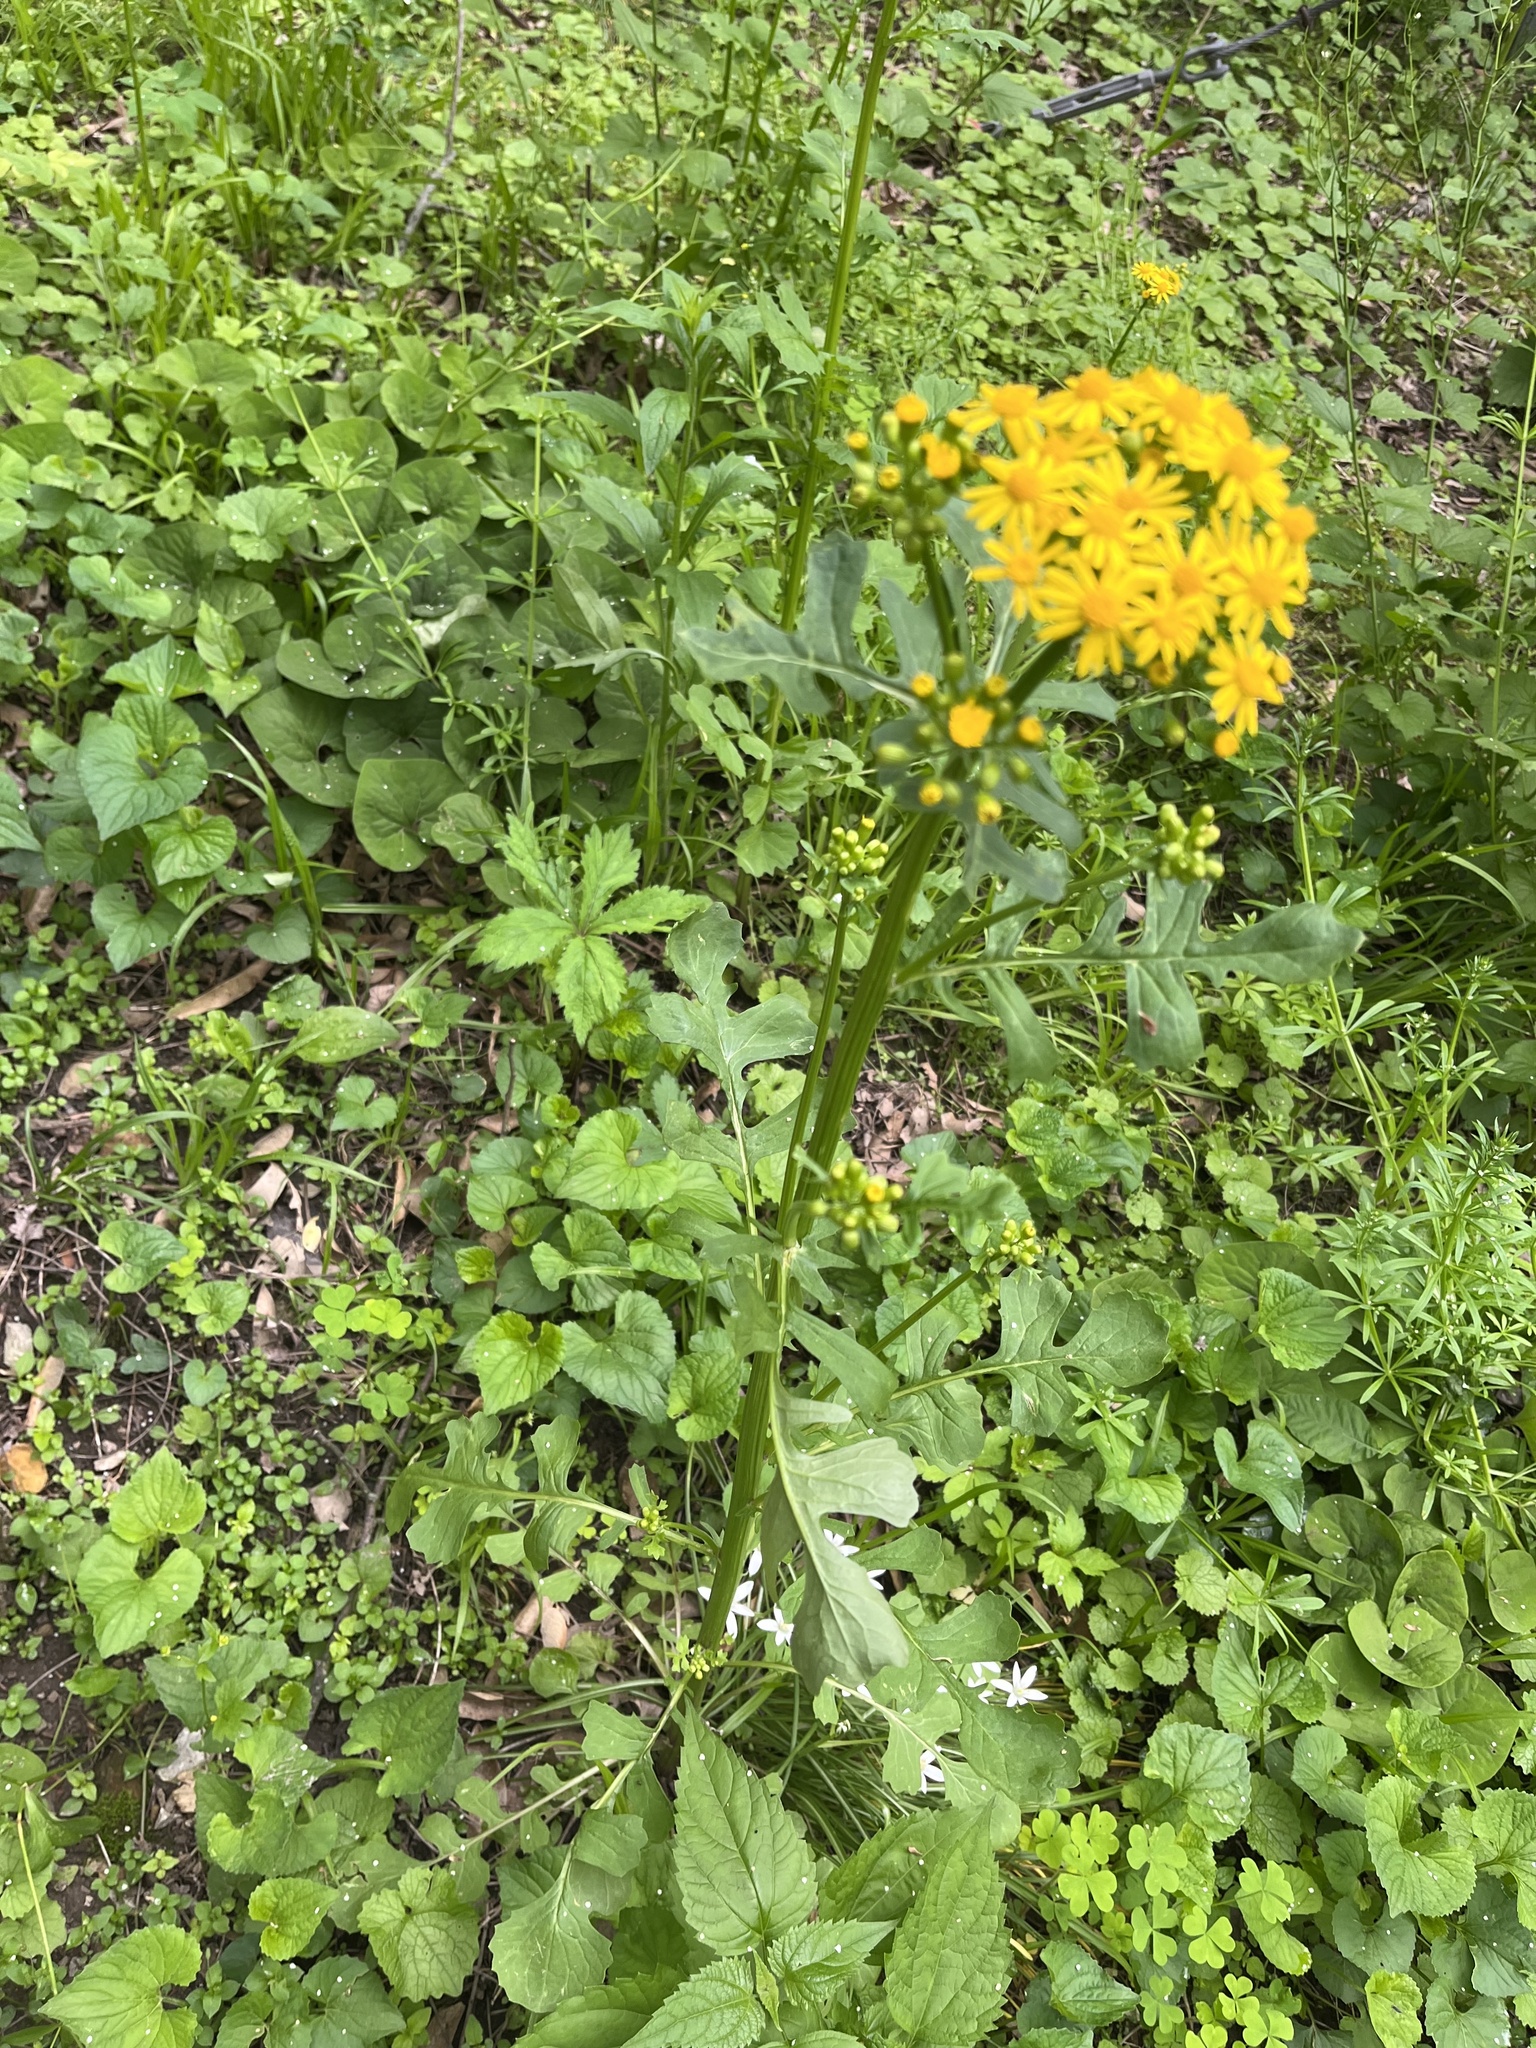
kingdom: Plantae
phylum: Tracheophyta
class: Magnoliopsida
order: Asterales
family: Asteraceae
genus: Packera
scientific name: Packera glabella
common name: Butterweed
